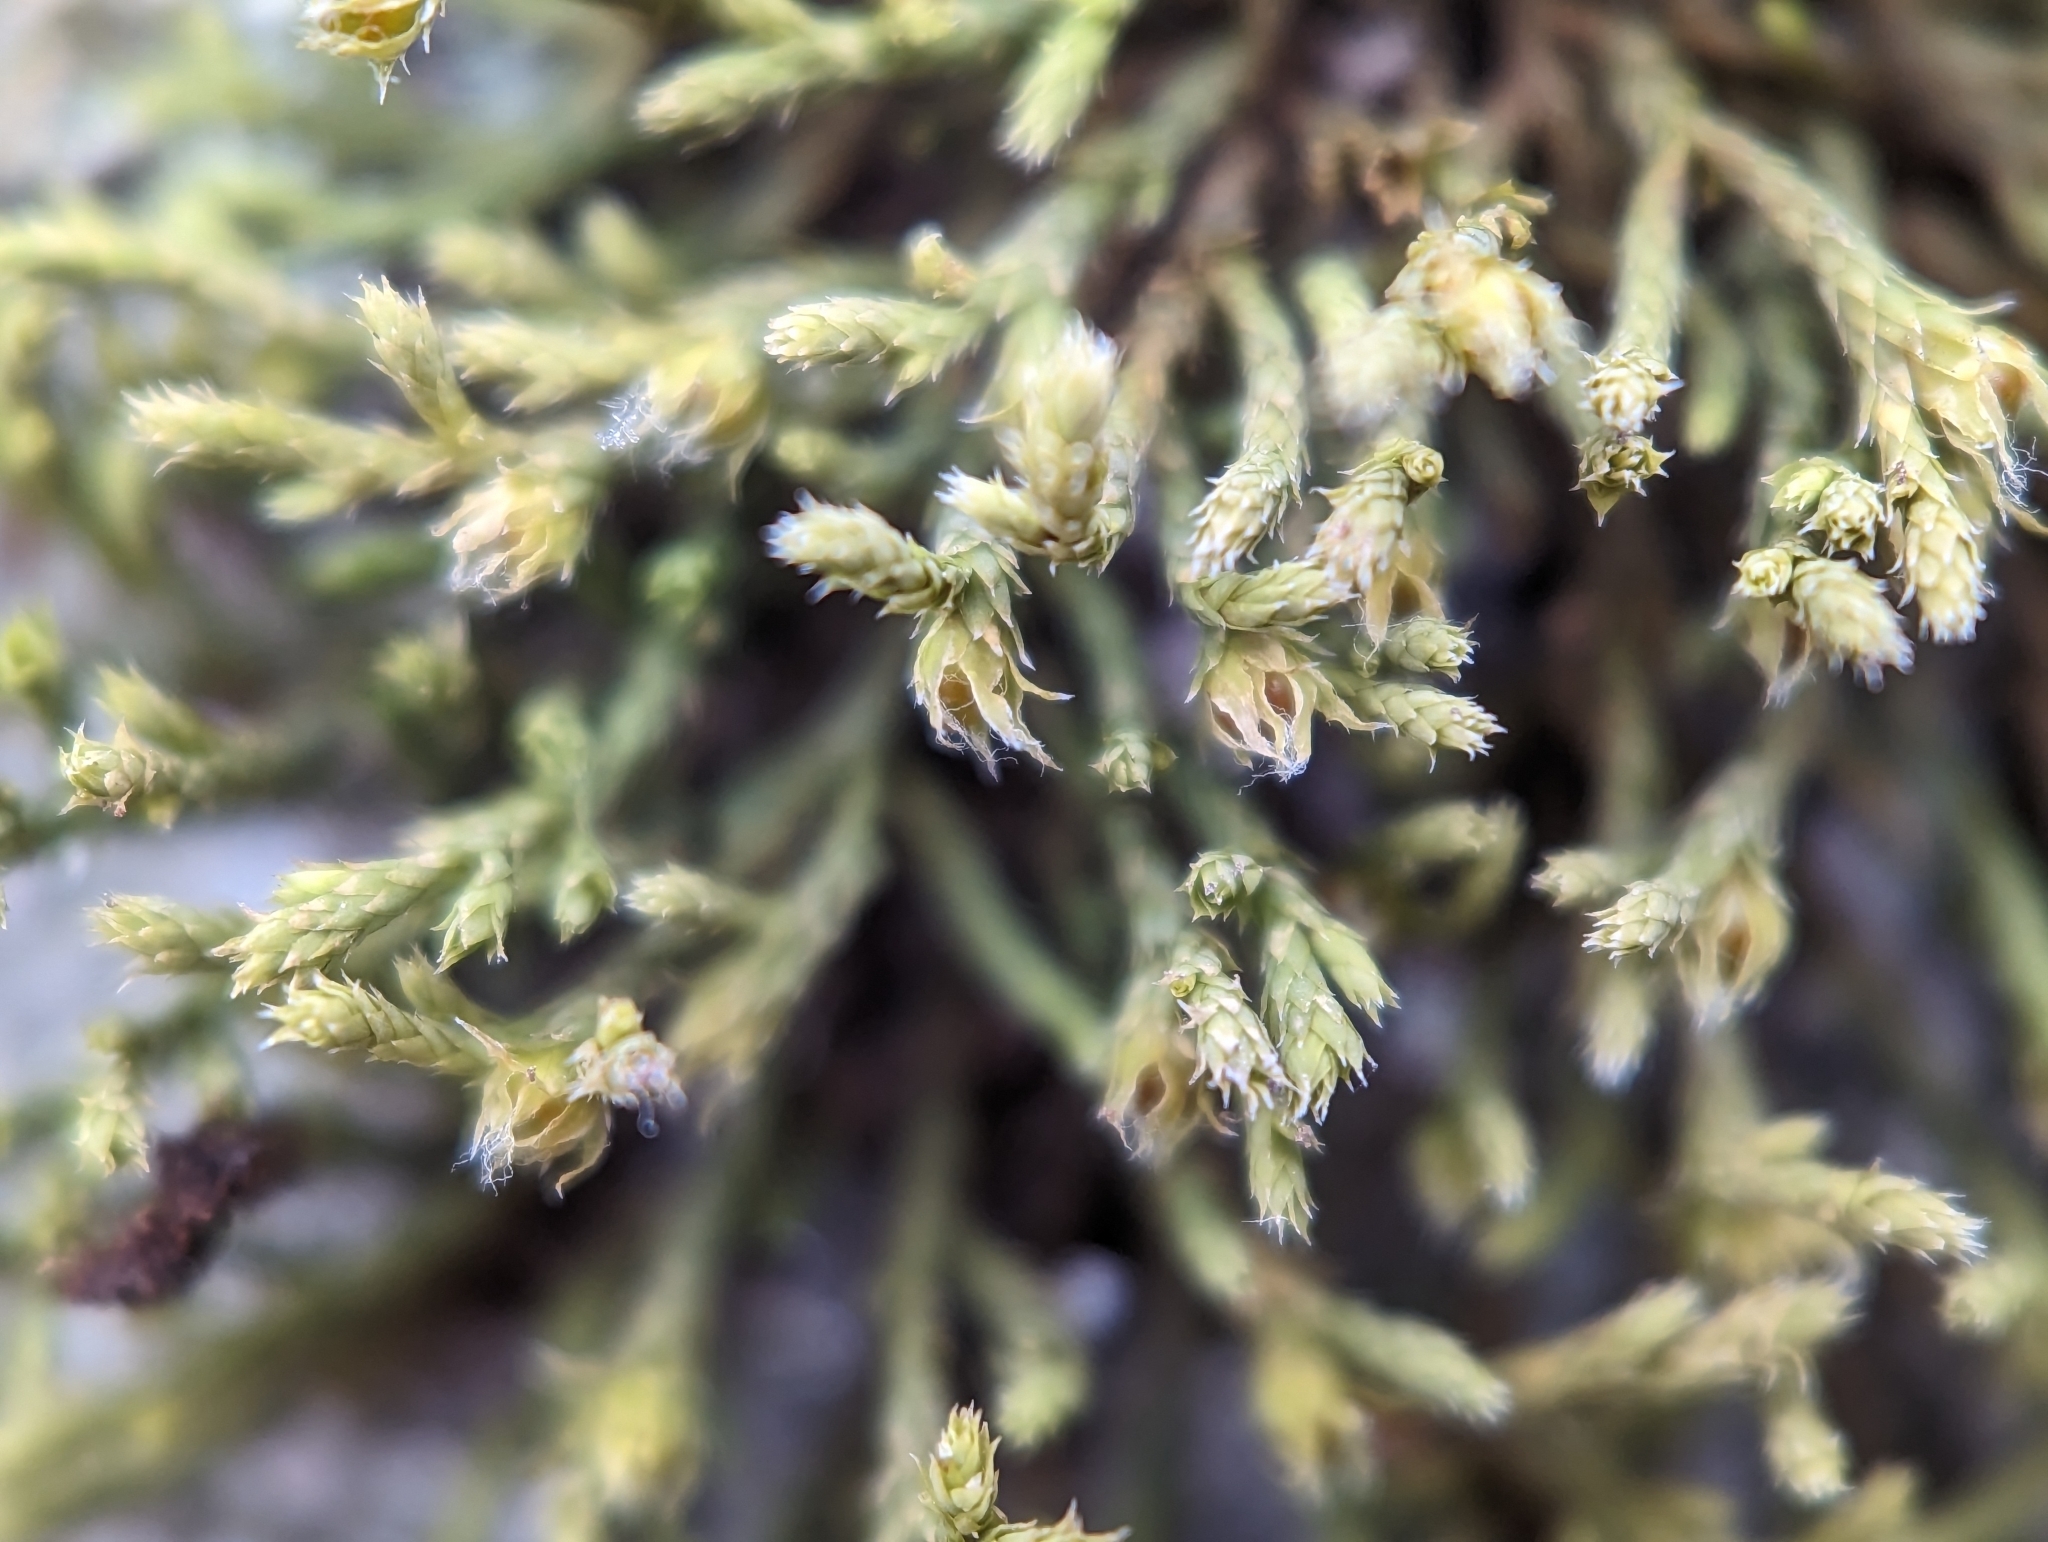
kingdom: Plantae
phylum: Bryophyta
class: Bryopsida
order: Hedwigiales
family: Hedwigiaceae
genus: Hedwigia
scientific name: Hedwigia ciliata
